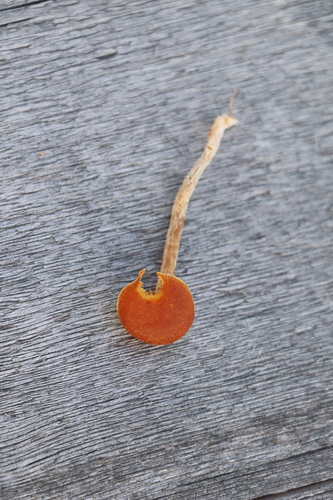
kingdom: Fungi
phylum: Basidiomycota
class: Agaricomycetes
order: Agaricales
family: Hymenogastraceae
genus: Gymnopilus
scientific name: Gymnopilus
